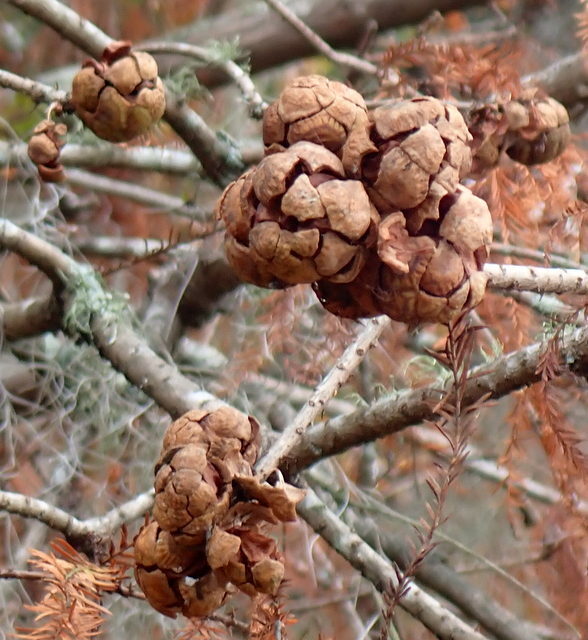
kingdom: Plantae
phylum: Tracheophyta
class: Pinopsida
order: Pinales
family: Cupressaceae
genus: Taxodium
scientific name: Taxodium distichum
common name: Bald cypress
